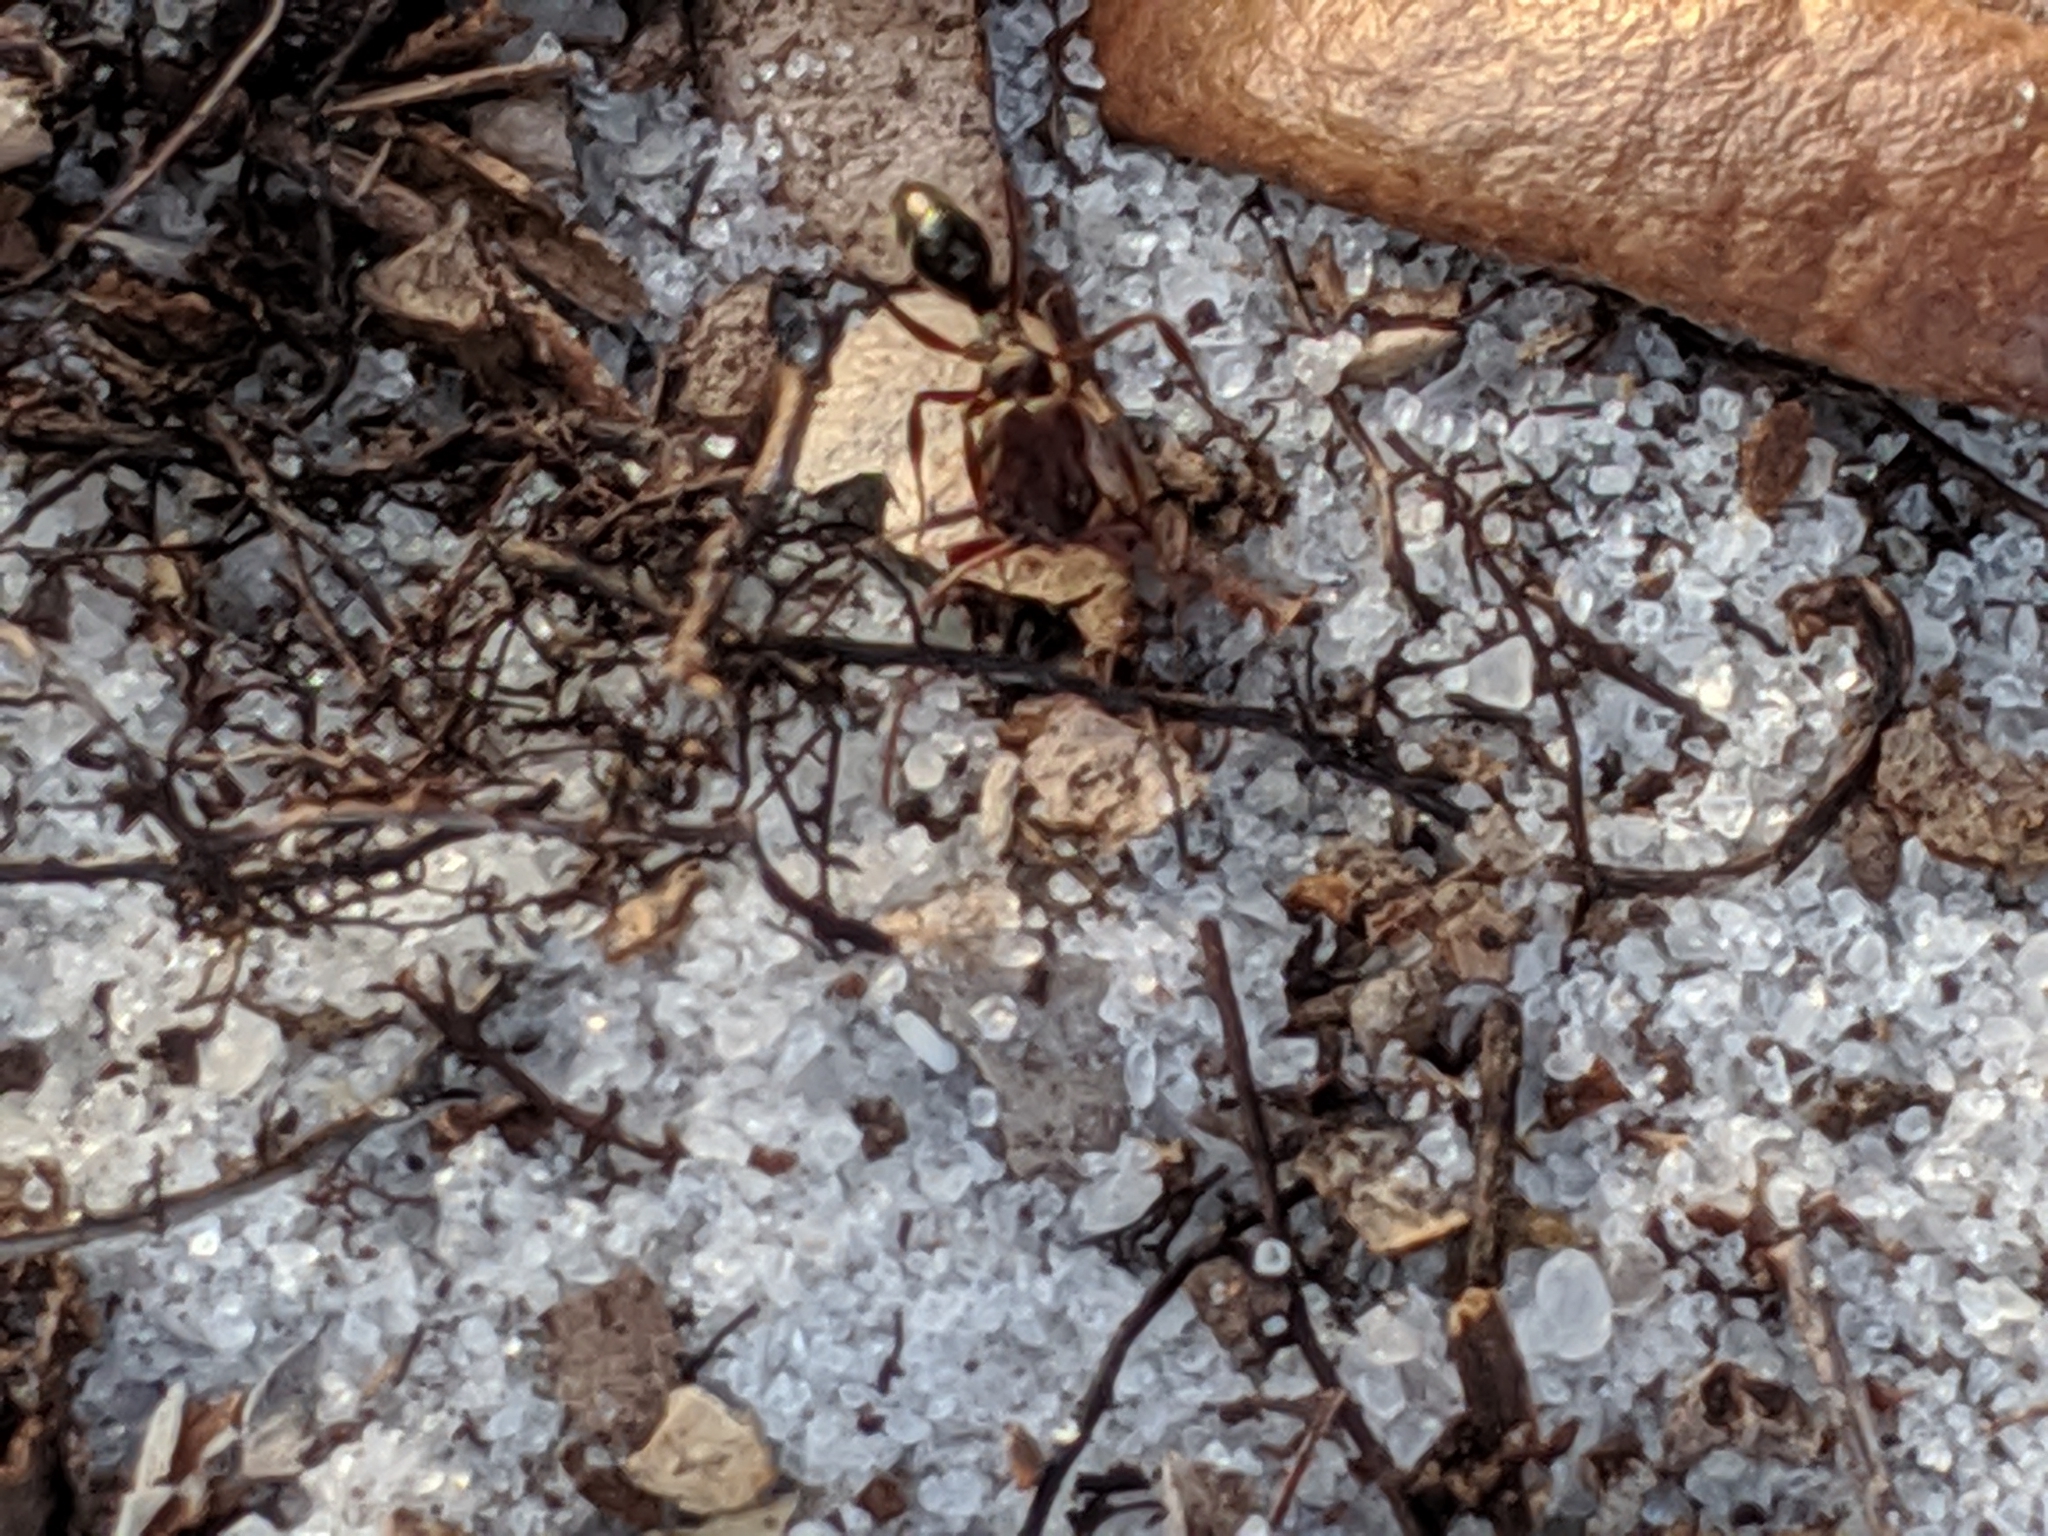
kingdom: Animalia
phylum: Arthropoda
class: Insecta
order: Hymenoptera
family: Formicidae
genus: Odontomachus
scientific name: Odontomachus brunneus
